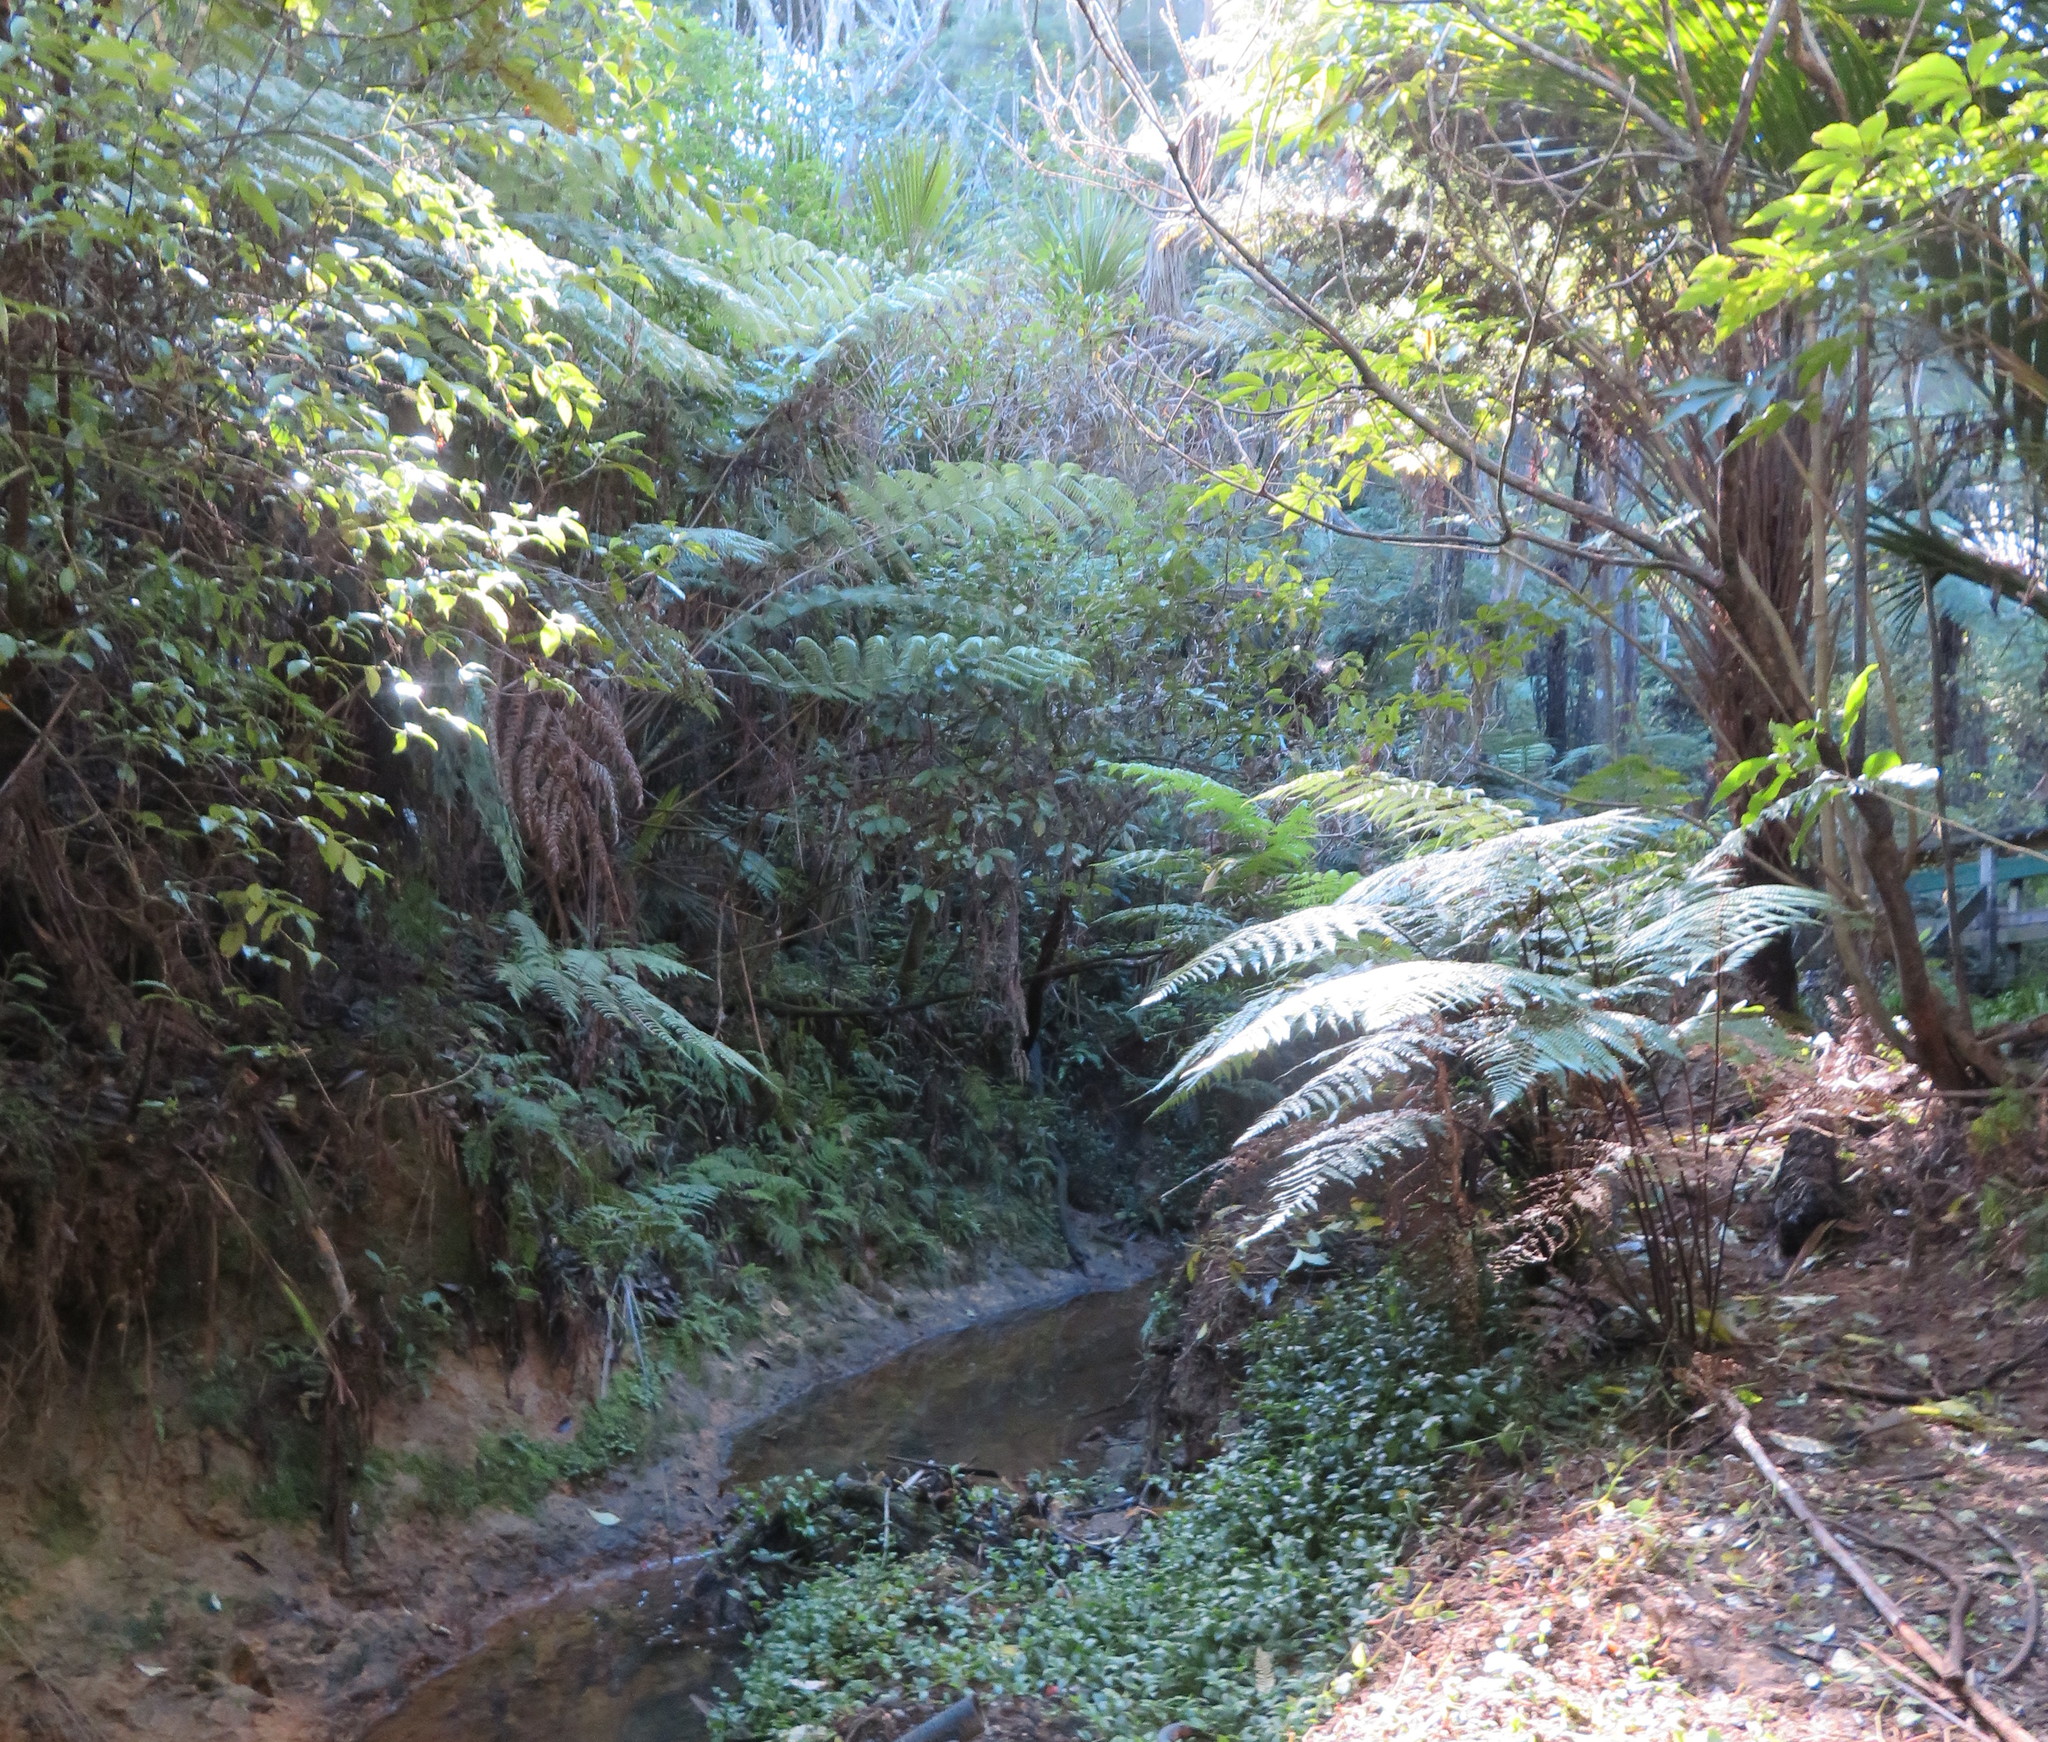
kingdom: Plantae
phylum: Tracheophyta
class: Magnoliopsida
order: Gentianales
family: Loganiaceae
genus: Geniostoma
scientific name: Geniostoma ligustrifolium
